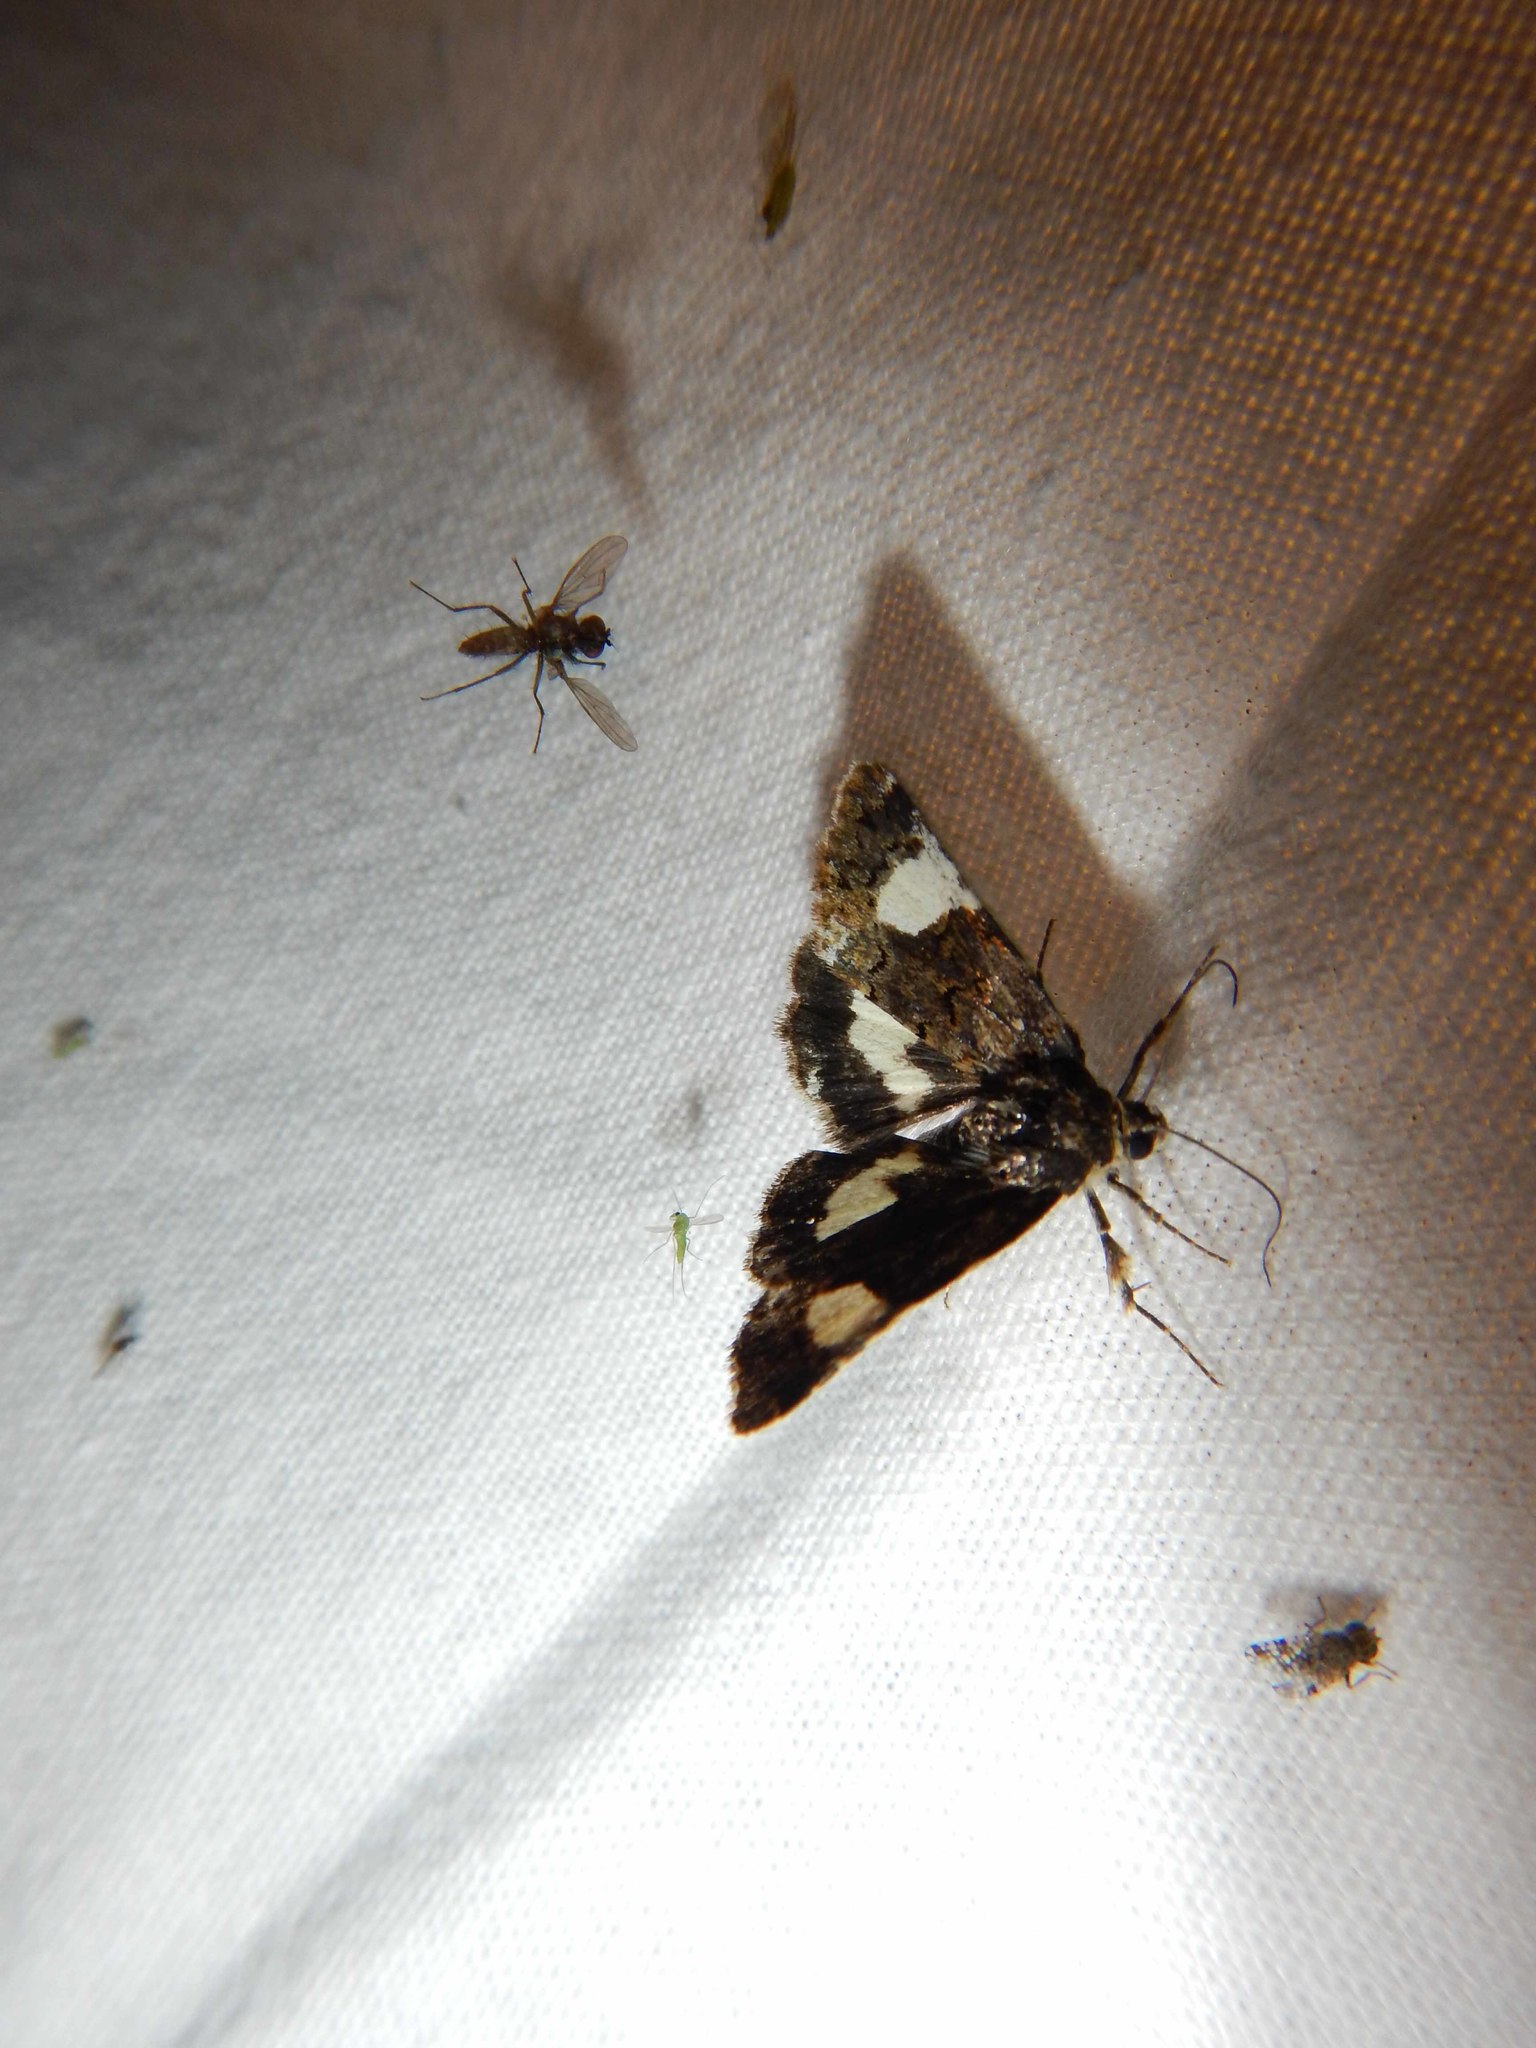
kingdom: Animalia
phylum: Arthropoda
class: Insecta
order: Lepidoptera
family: Erebidae
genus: Tyta
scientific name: Tyta luctuosa
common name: Four-spotted
